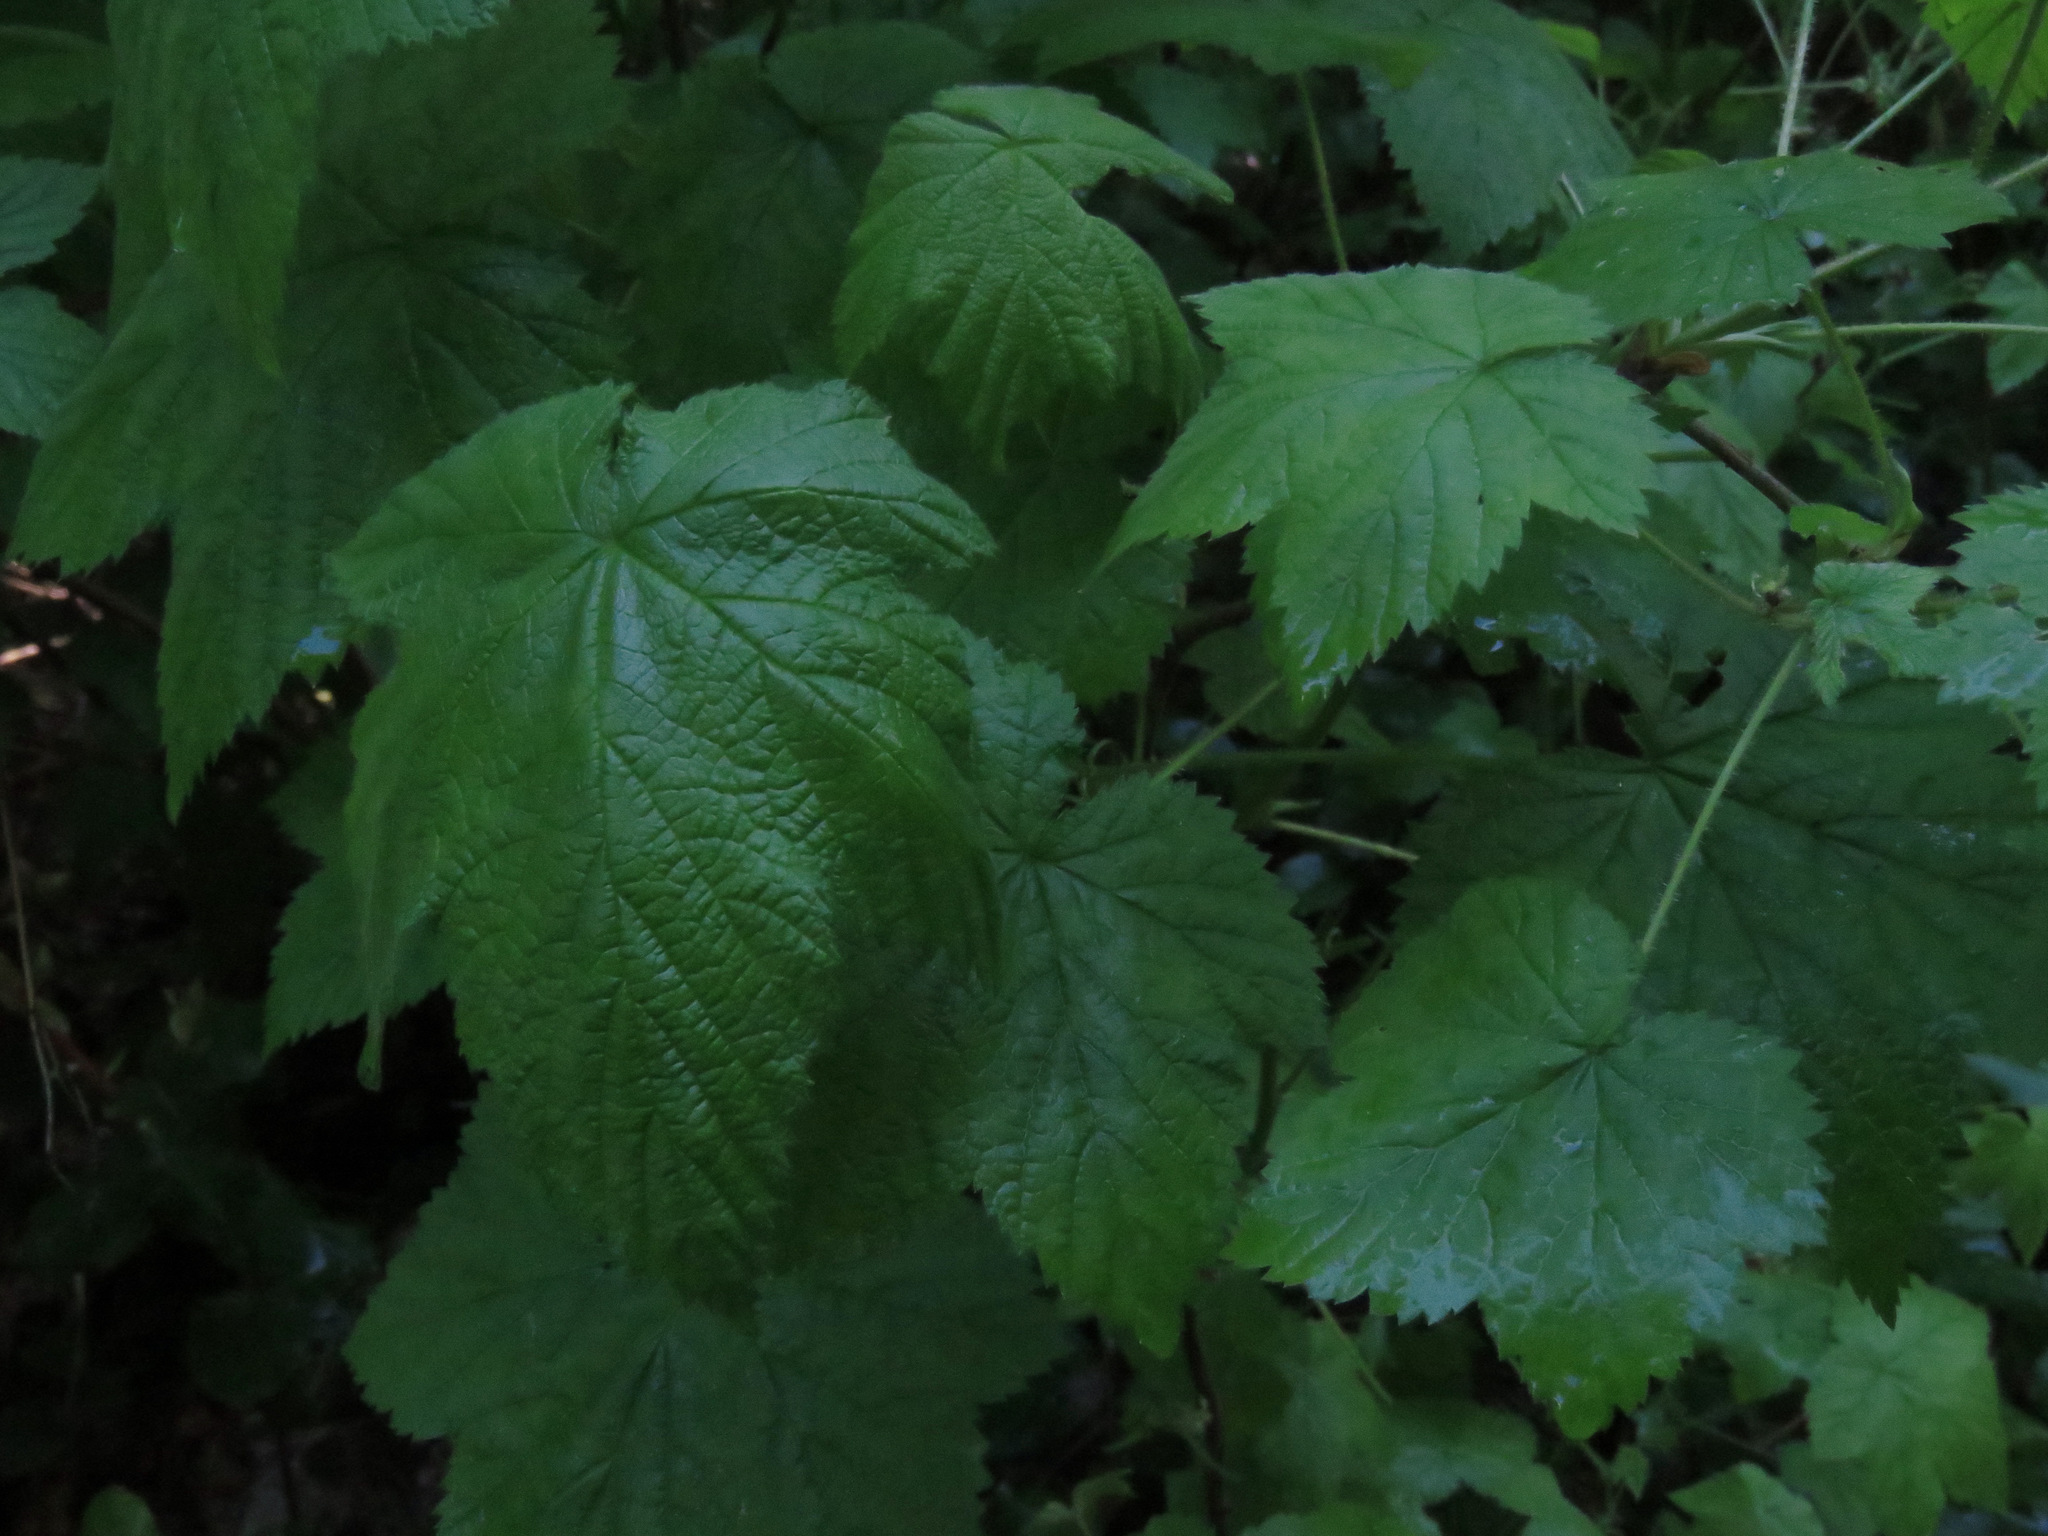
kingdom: Plantae
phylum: Tracheophyta
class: Magnoliopsida
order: Rosales
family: Rosaceae
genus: Rubus
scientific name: Rubus parviflorus
